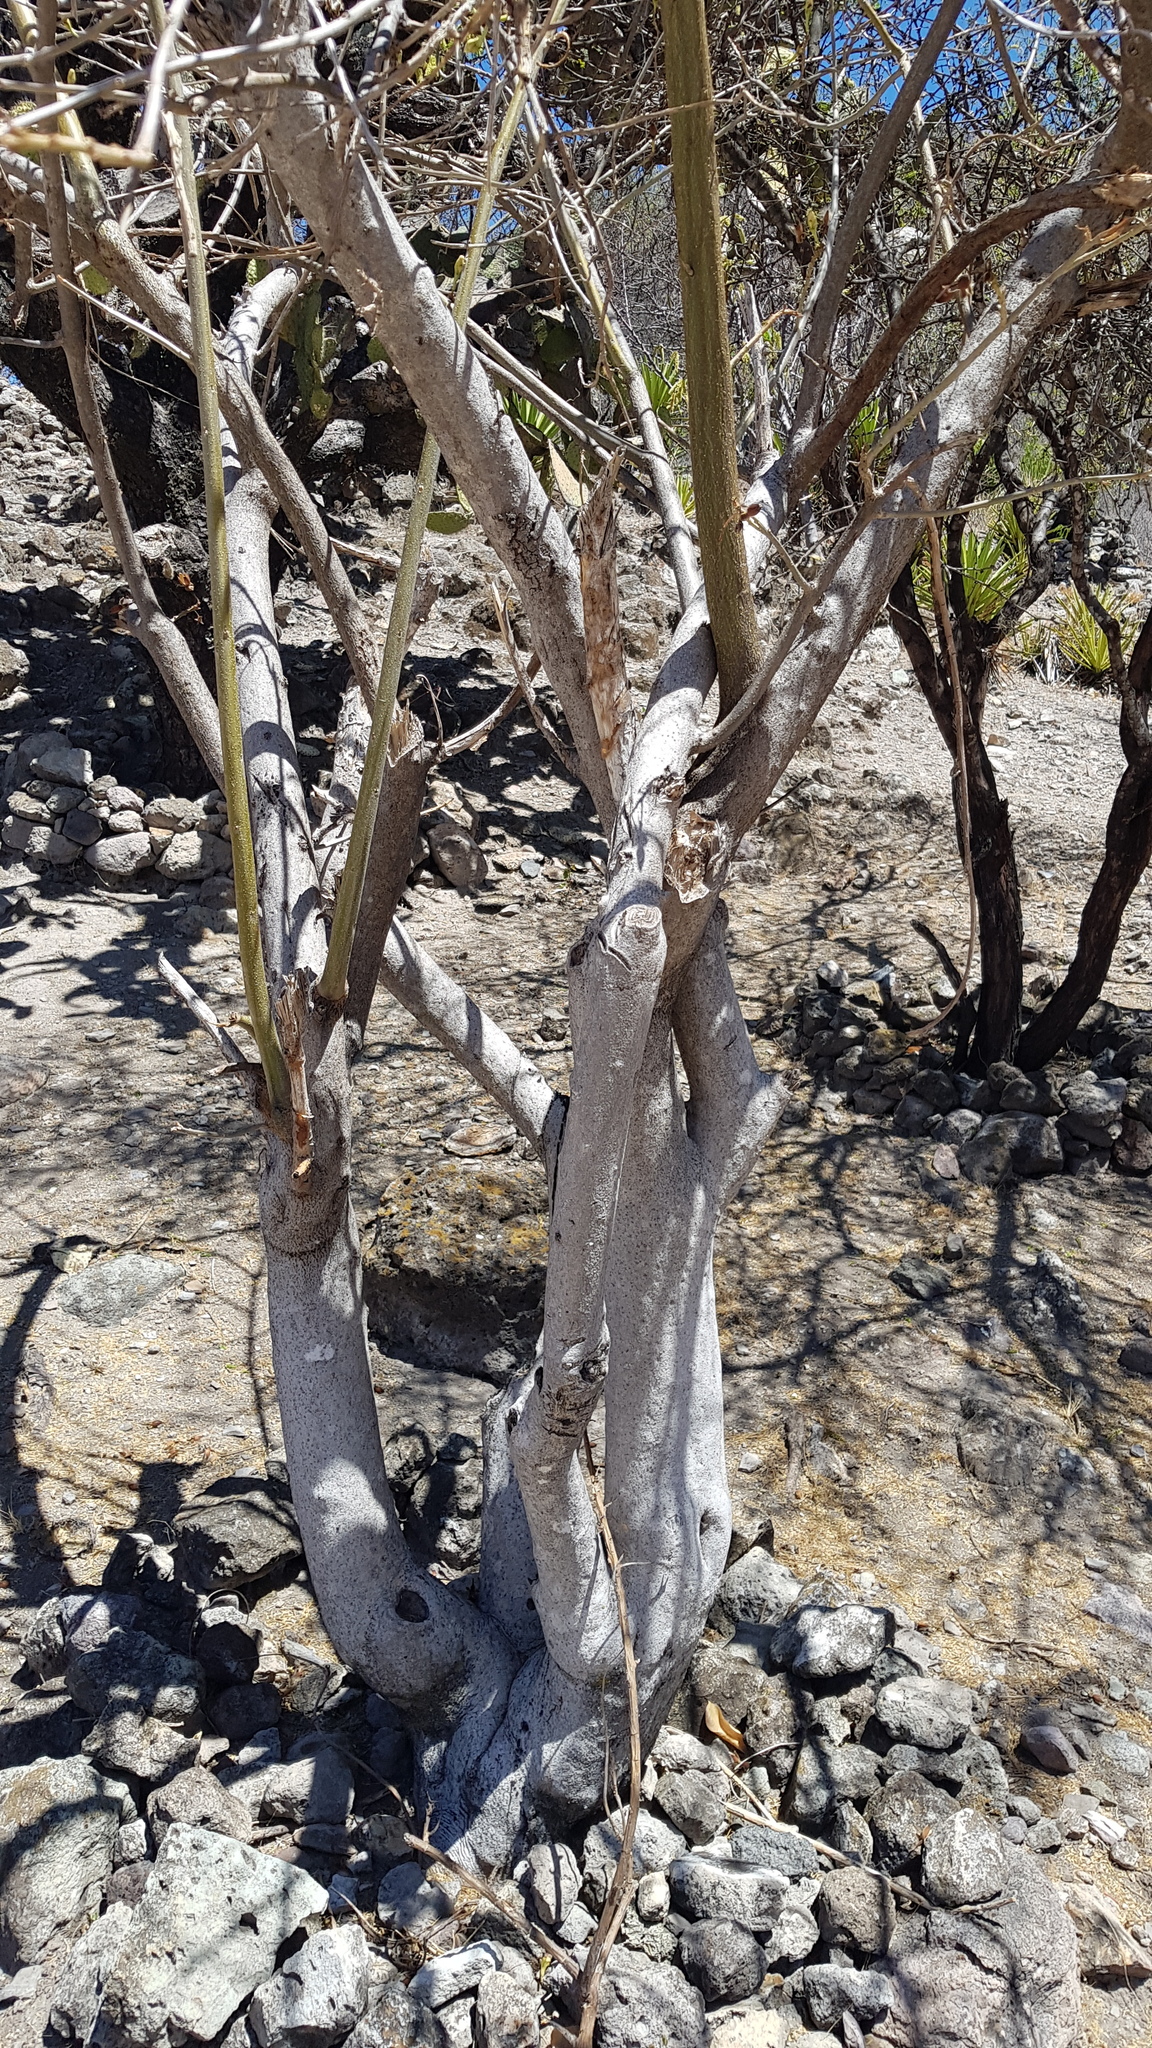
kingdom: Plantae
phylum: Tracheophyta
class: Magnoliopsida
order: Solanales
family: Convolvulaceae
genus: Ipomoea
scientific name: Ipomoea pauciflora
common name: Tree morningglory
